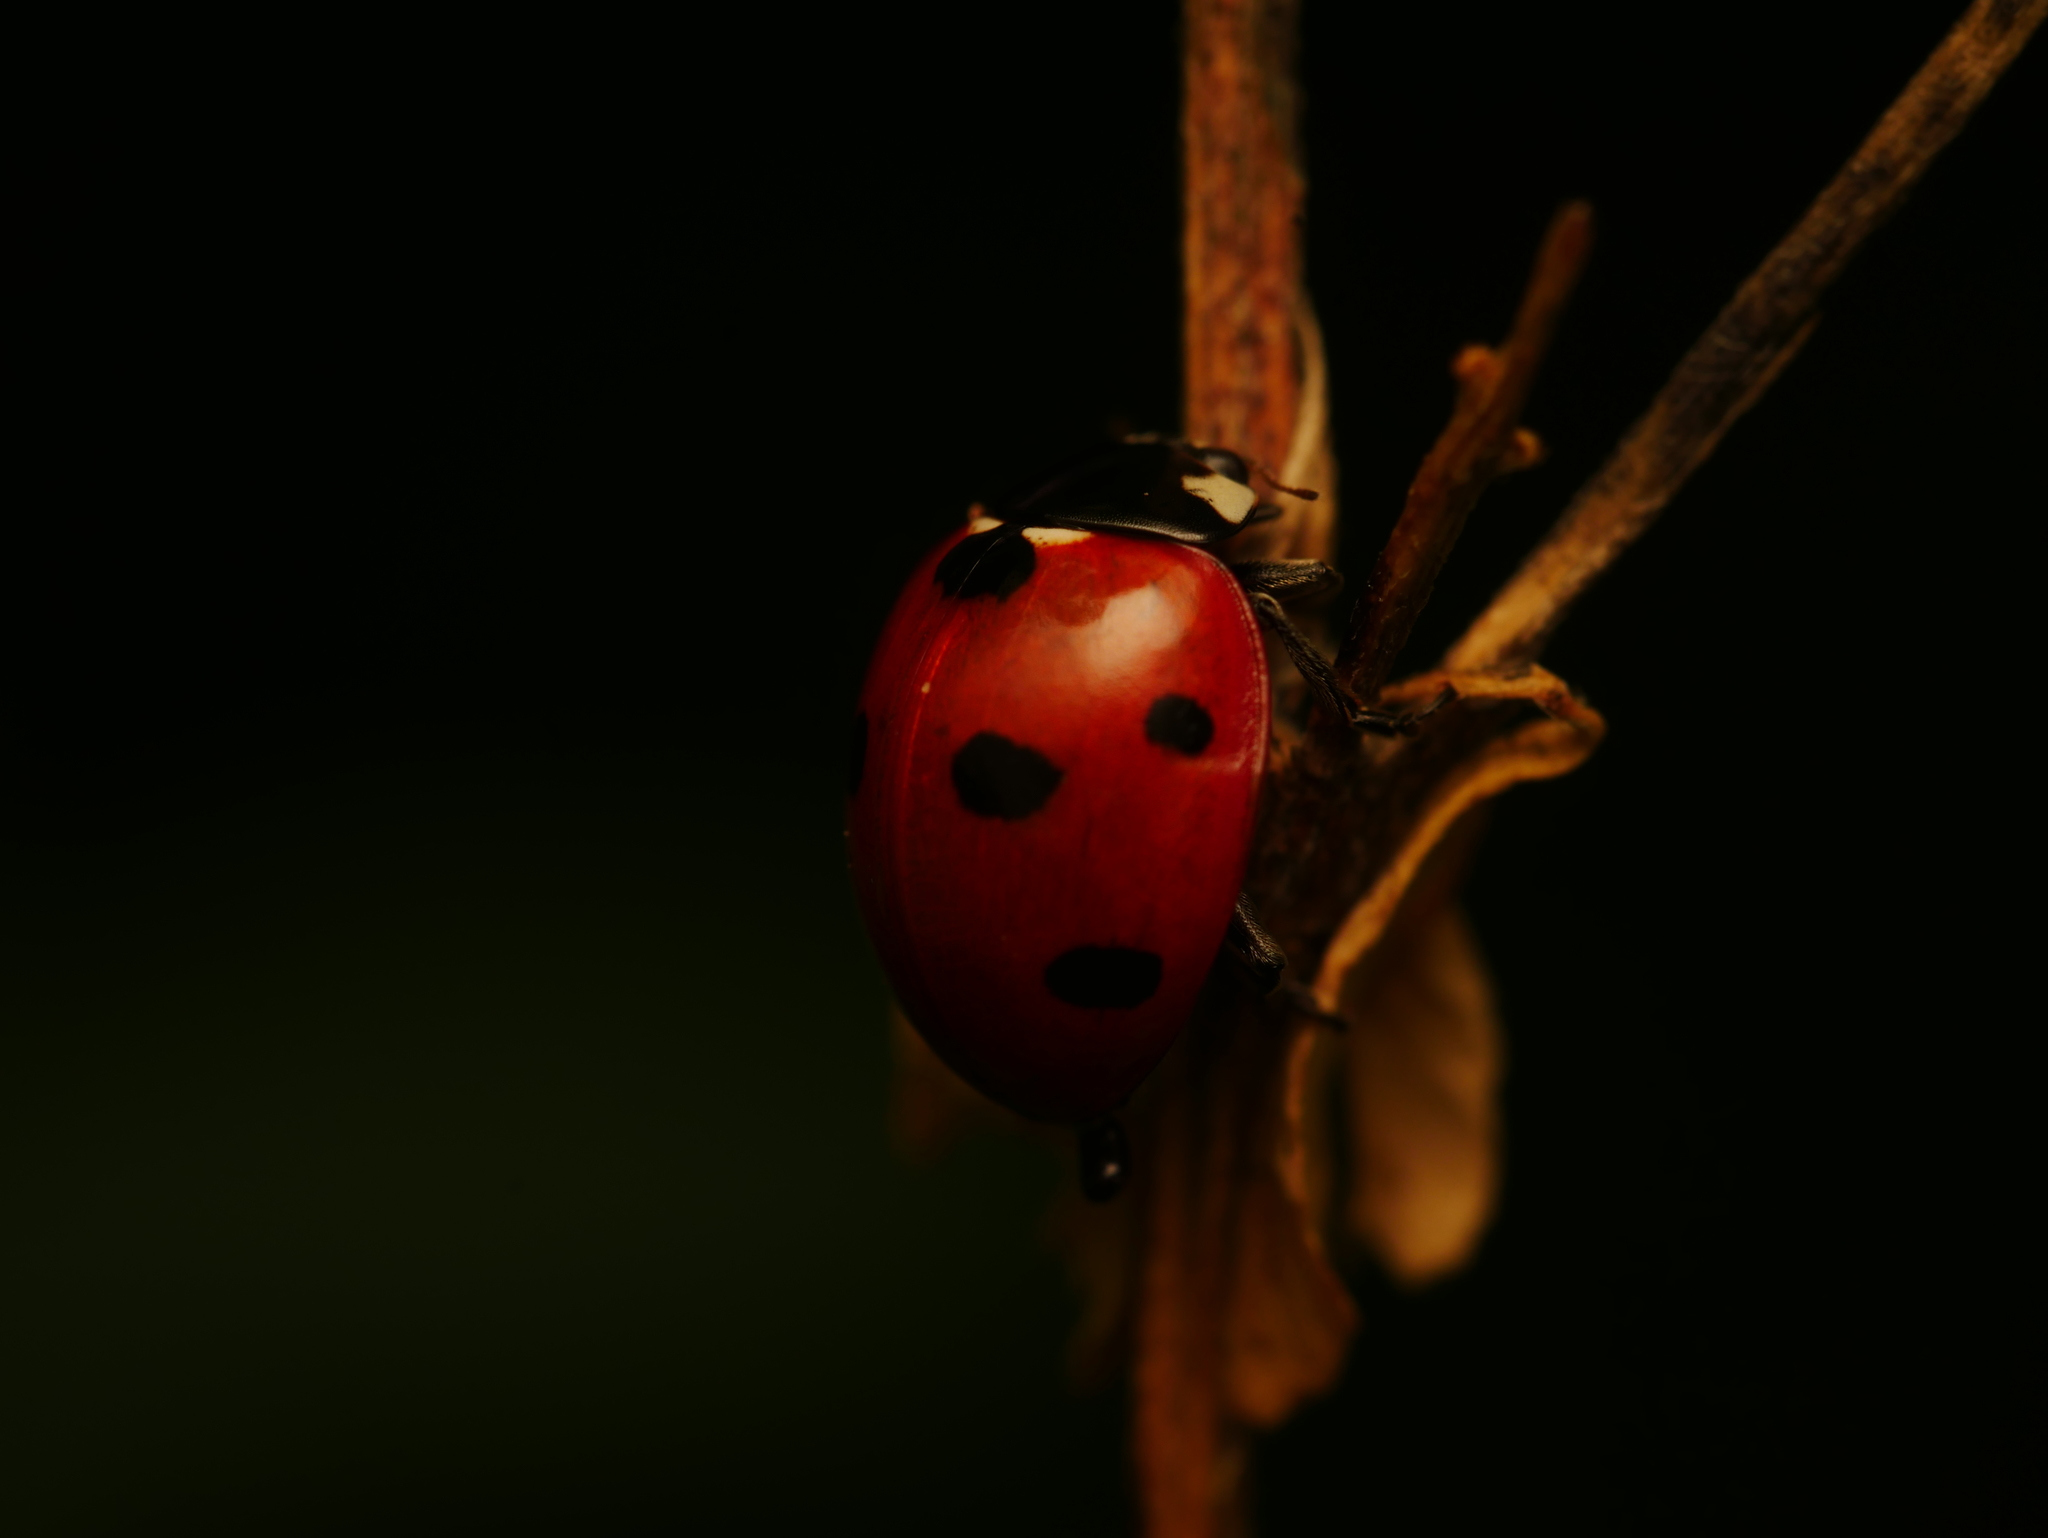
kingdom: Animalia
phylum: Arthropoda
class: Insecta
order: Coleoptera
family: Coccinellidae
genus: Coccinella
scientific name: Coccinella septempunctata
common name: Sevenspotted lady beetle
